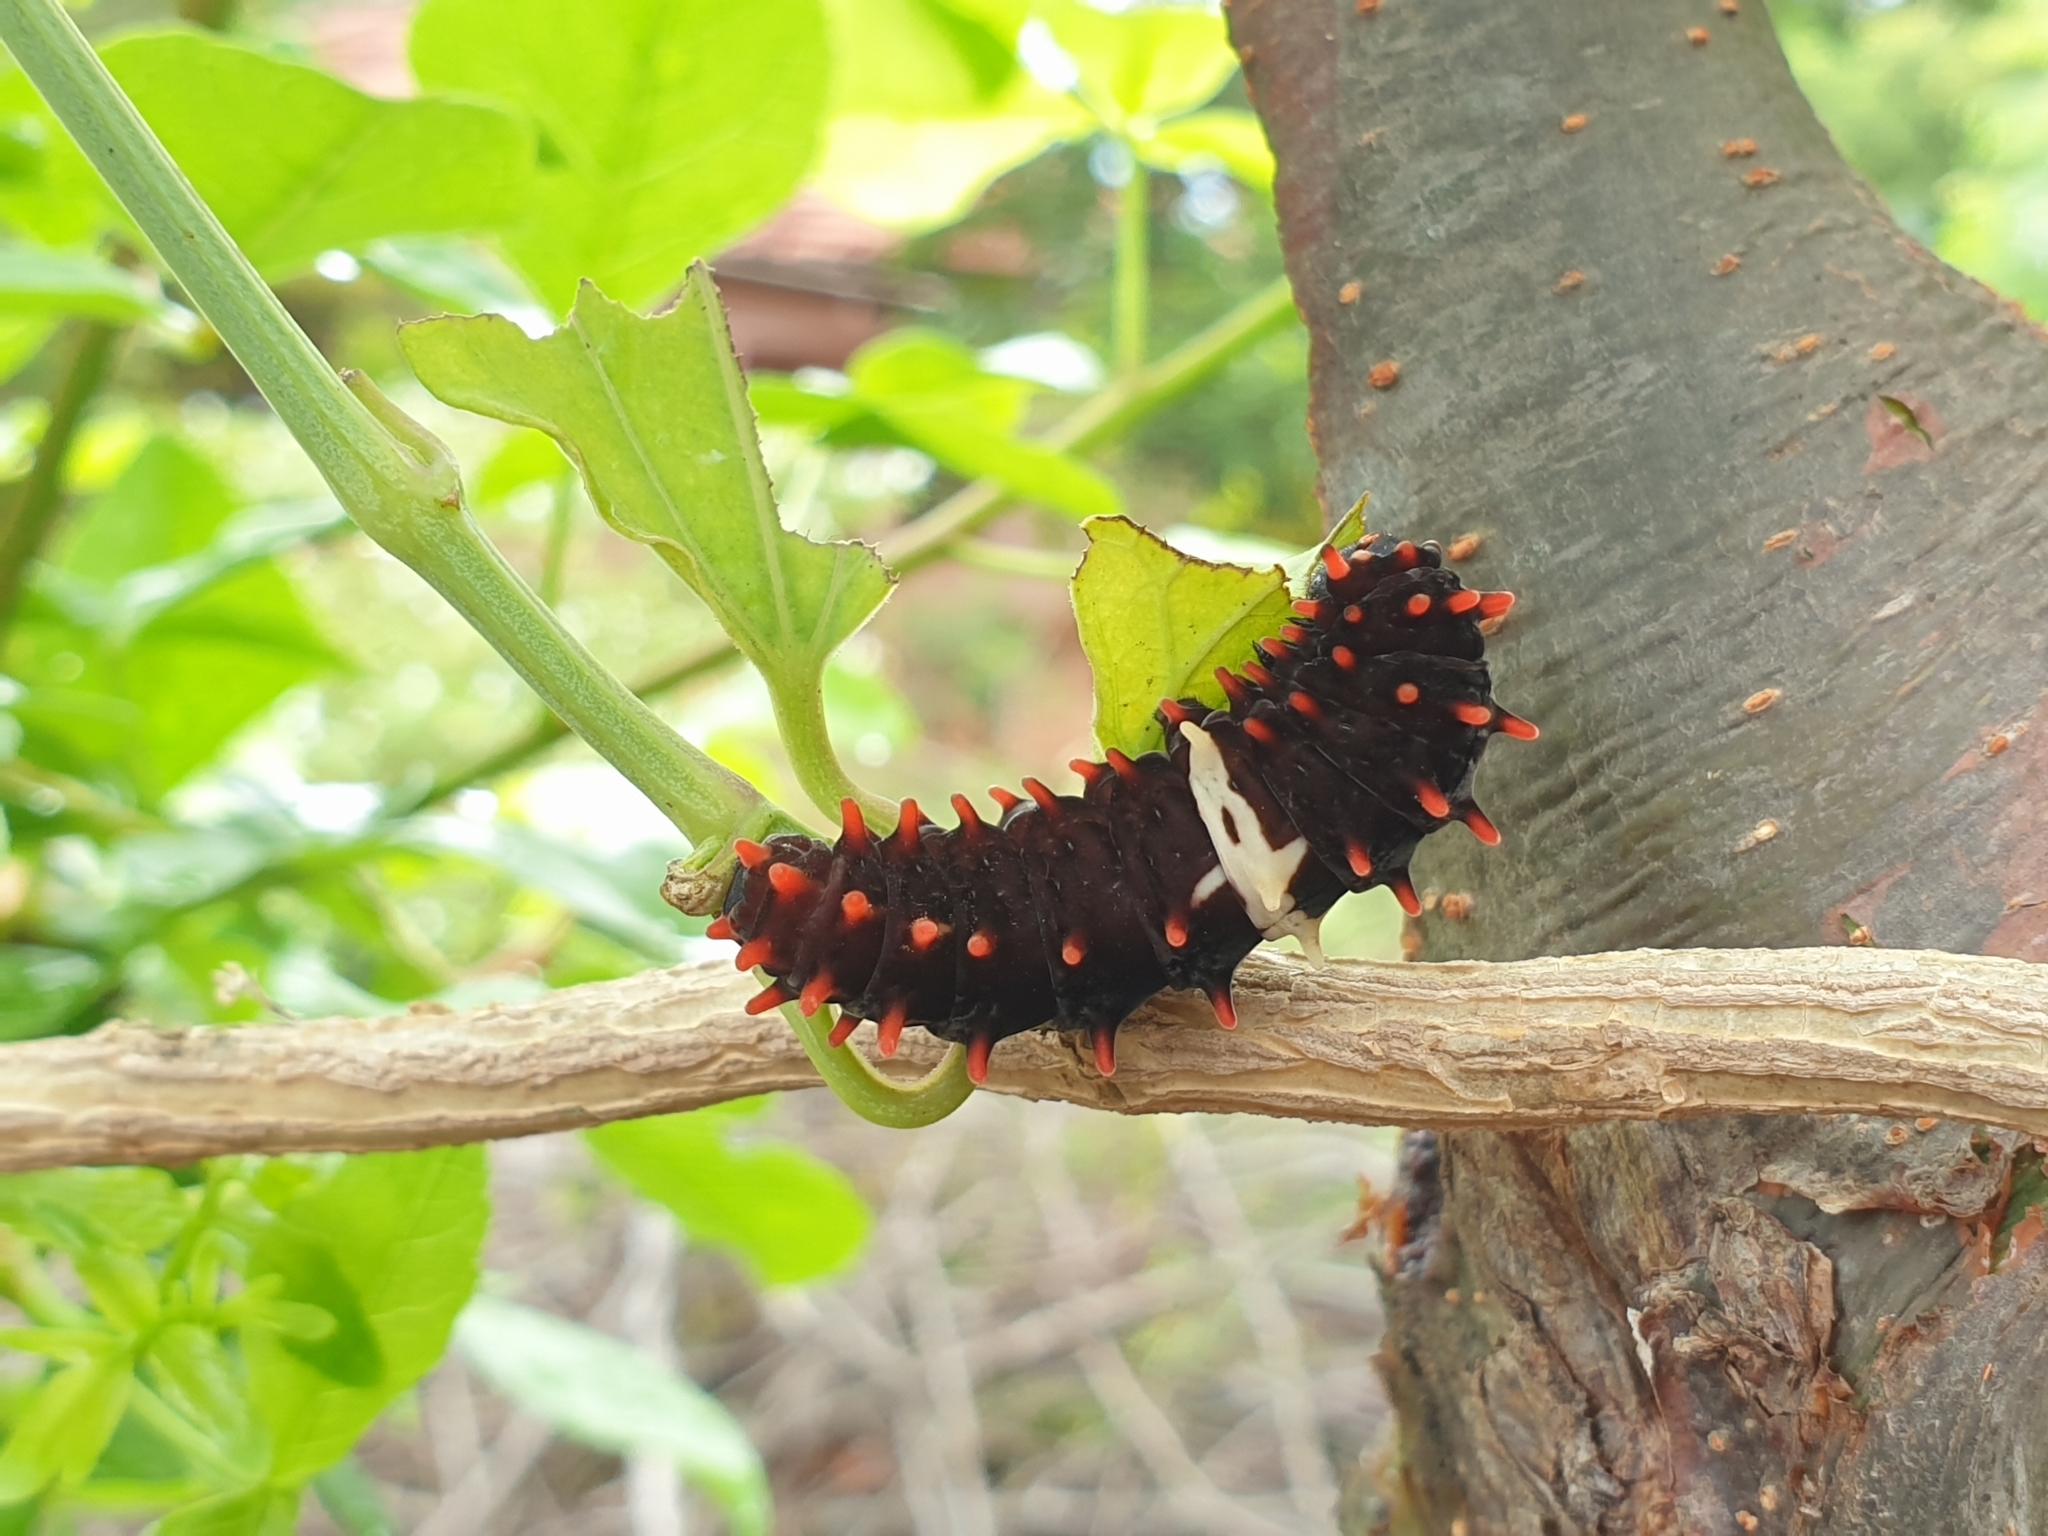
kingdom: Animalia
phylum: Arthropoda
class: Insecta
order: Lepidoptera
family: Papilionidae
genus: Pachliopta
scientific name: Pachliopta aristolochiae
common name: Common rose
